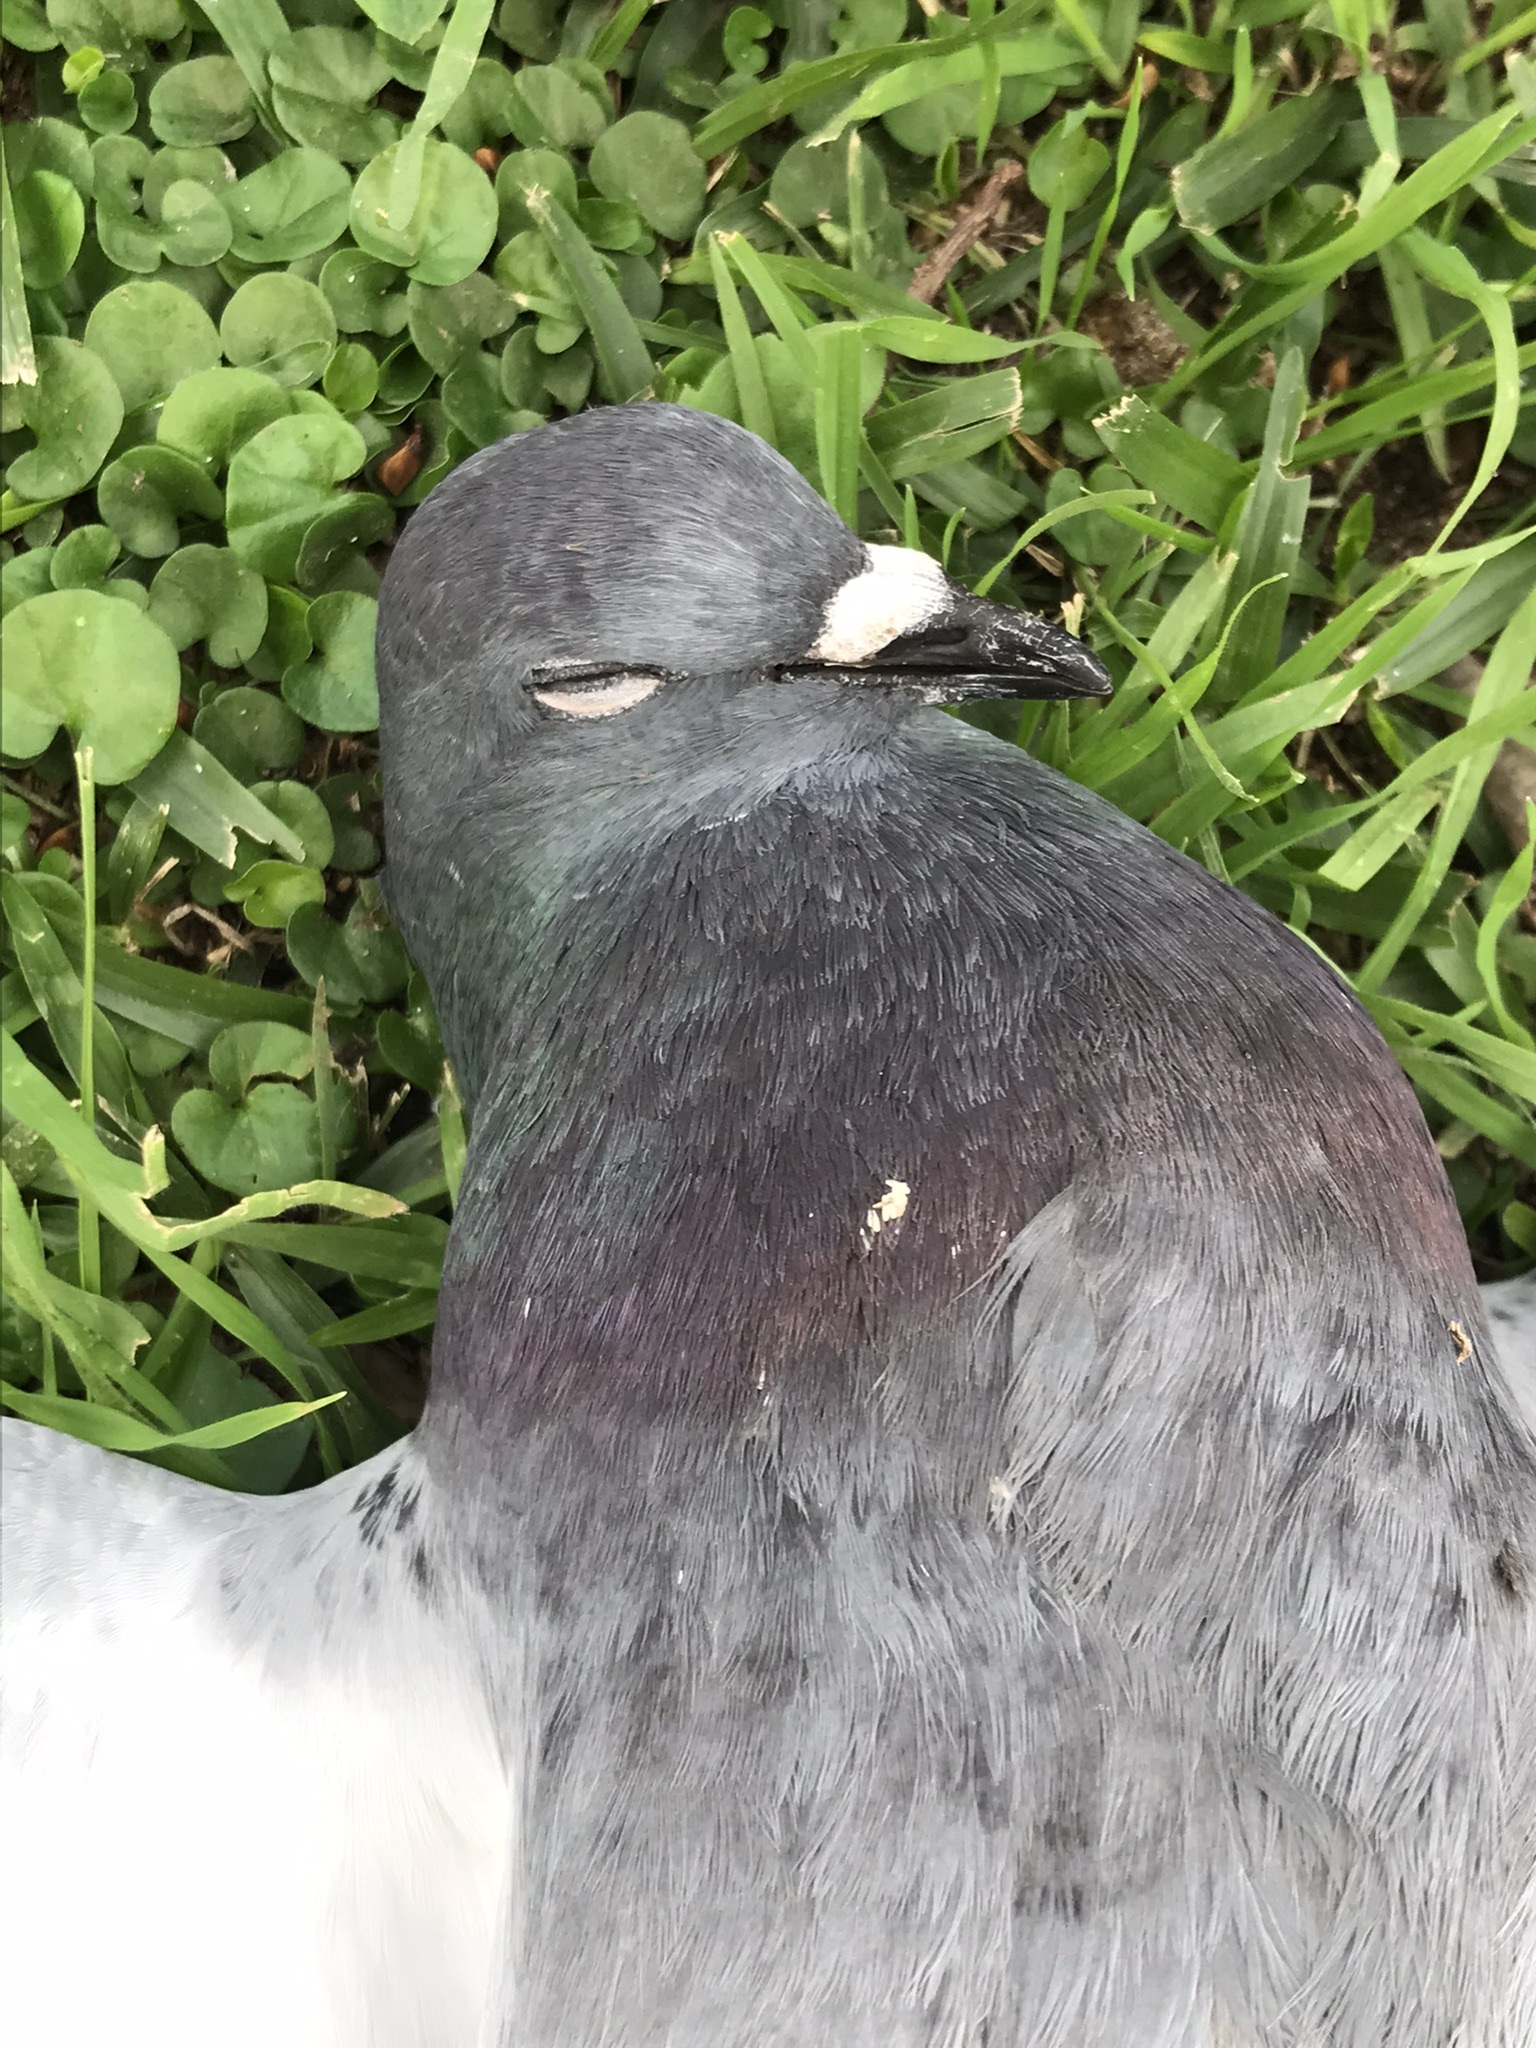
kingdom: Animalia
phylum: Chordata
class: Aves
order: Columbiformes
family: Columbidae
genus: Columba
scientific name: Columba livia
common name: Rock pigeon
